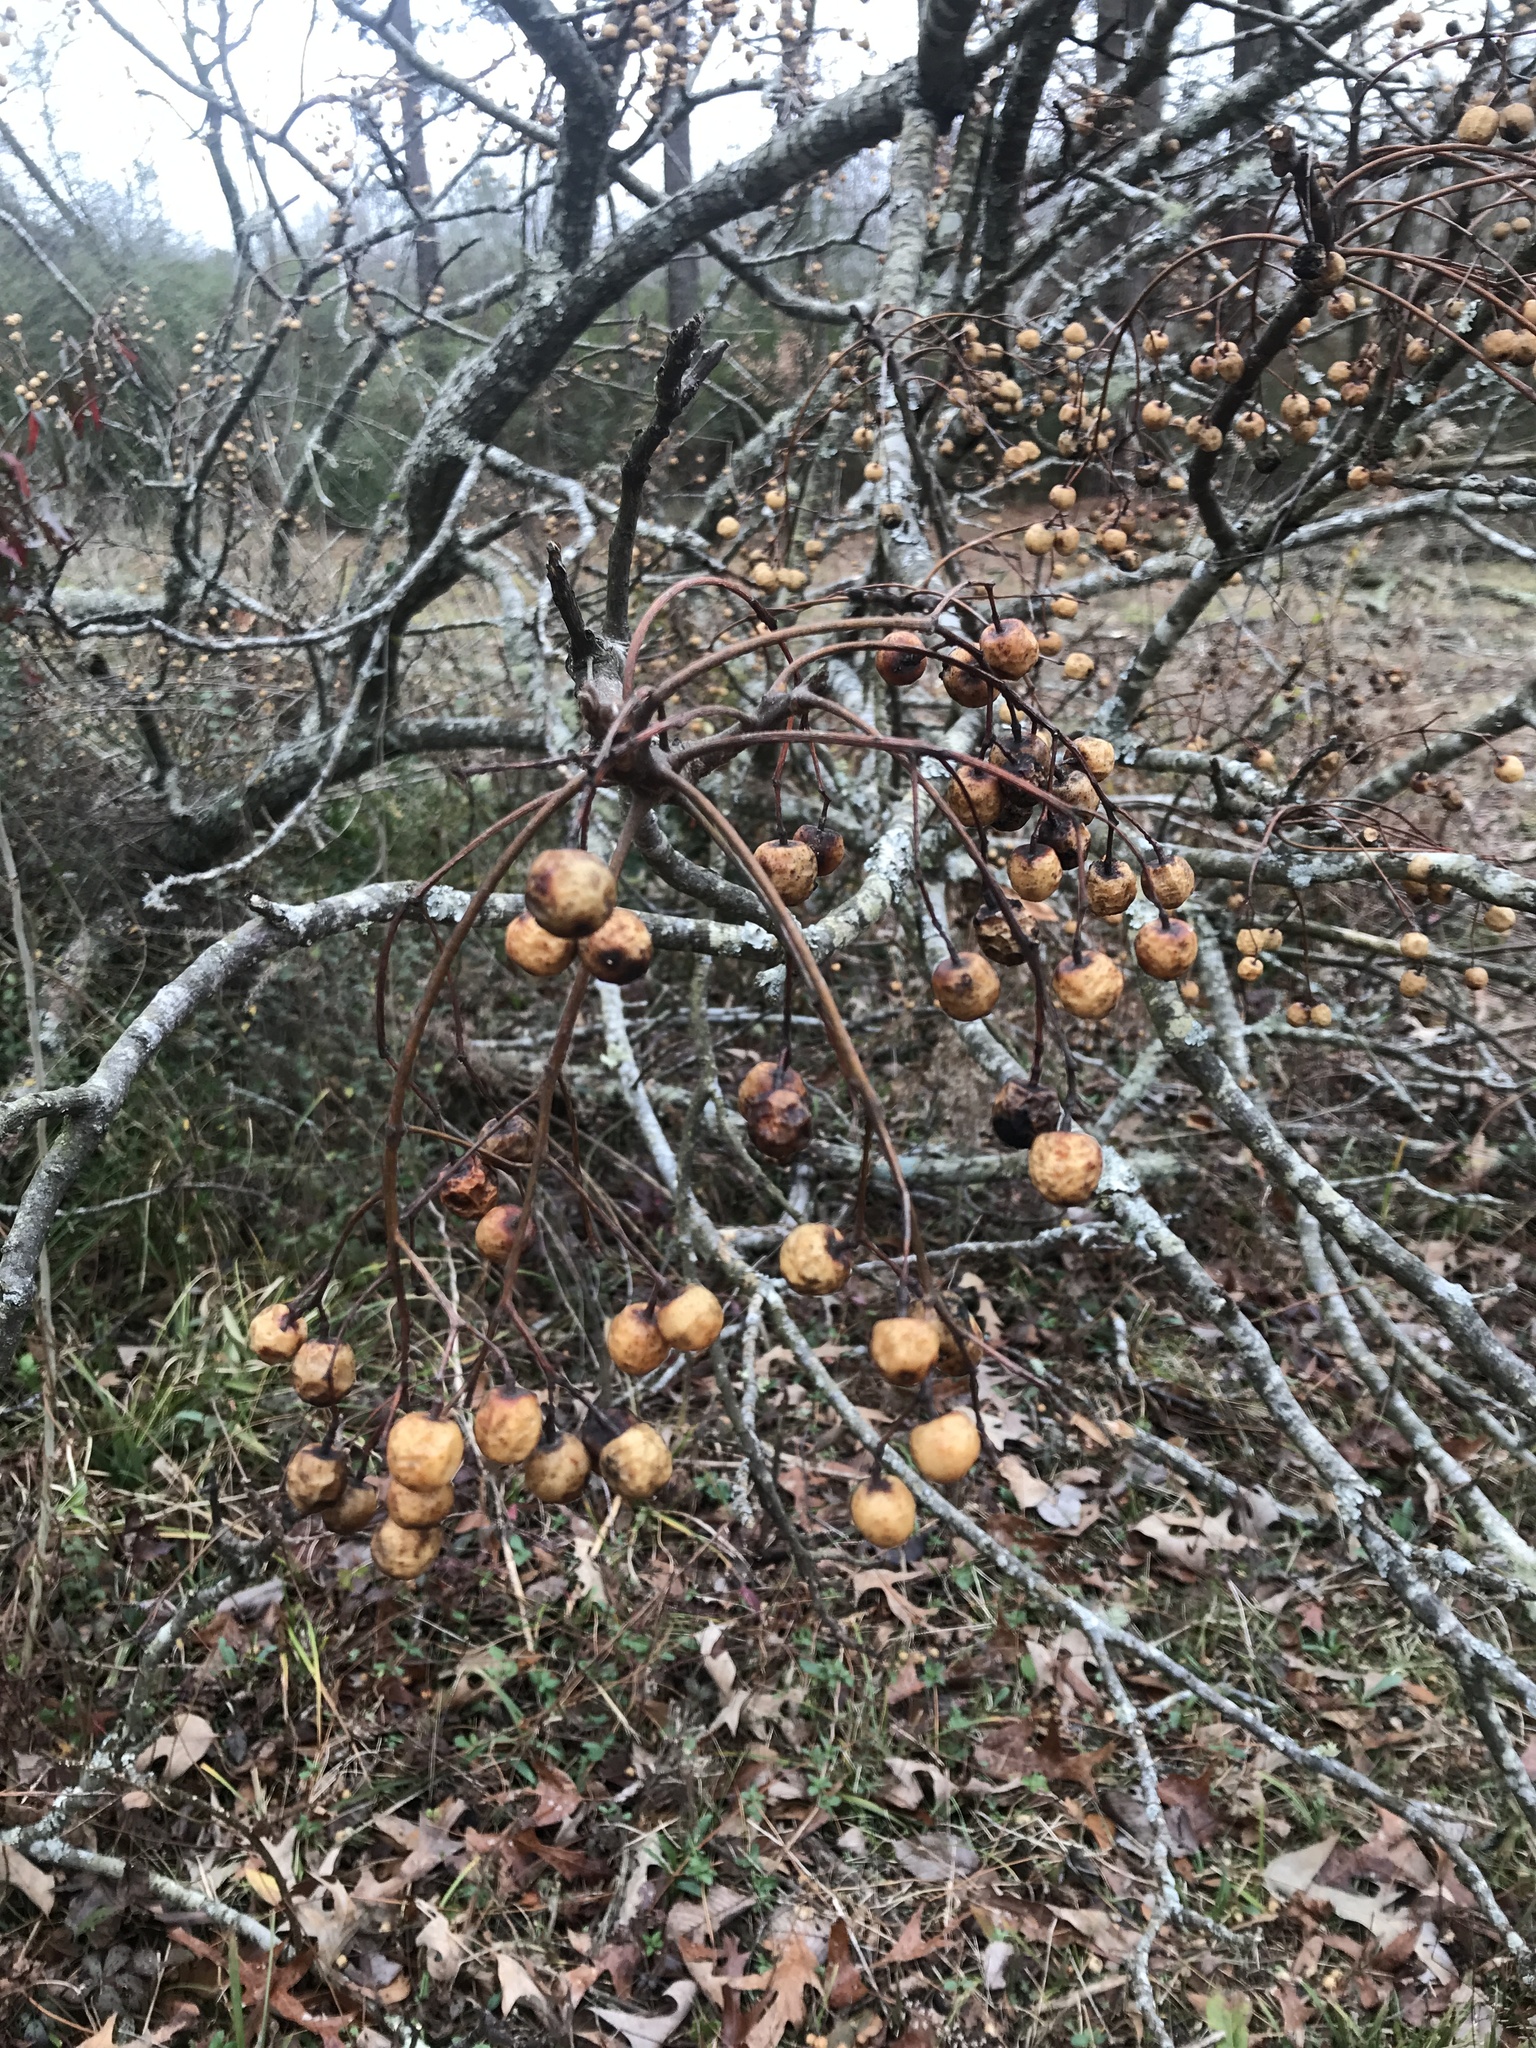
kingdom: Plantae
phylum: Tracheophyta
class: Magnoliopsida
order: Sapindales
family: Meliaceae
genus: Melia
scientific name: Melia azedarach
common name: Chinaberrytree
